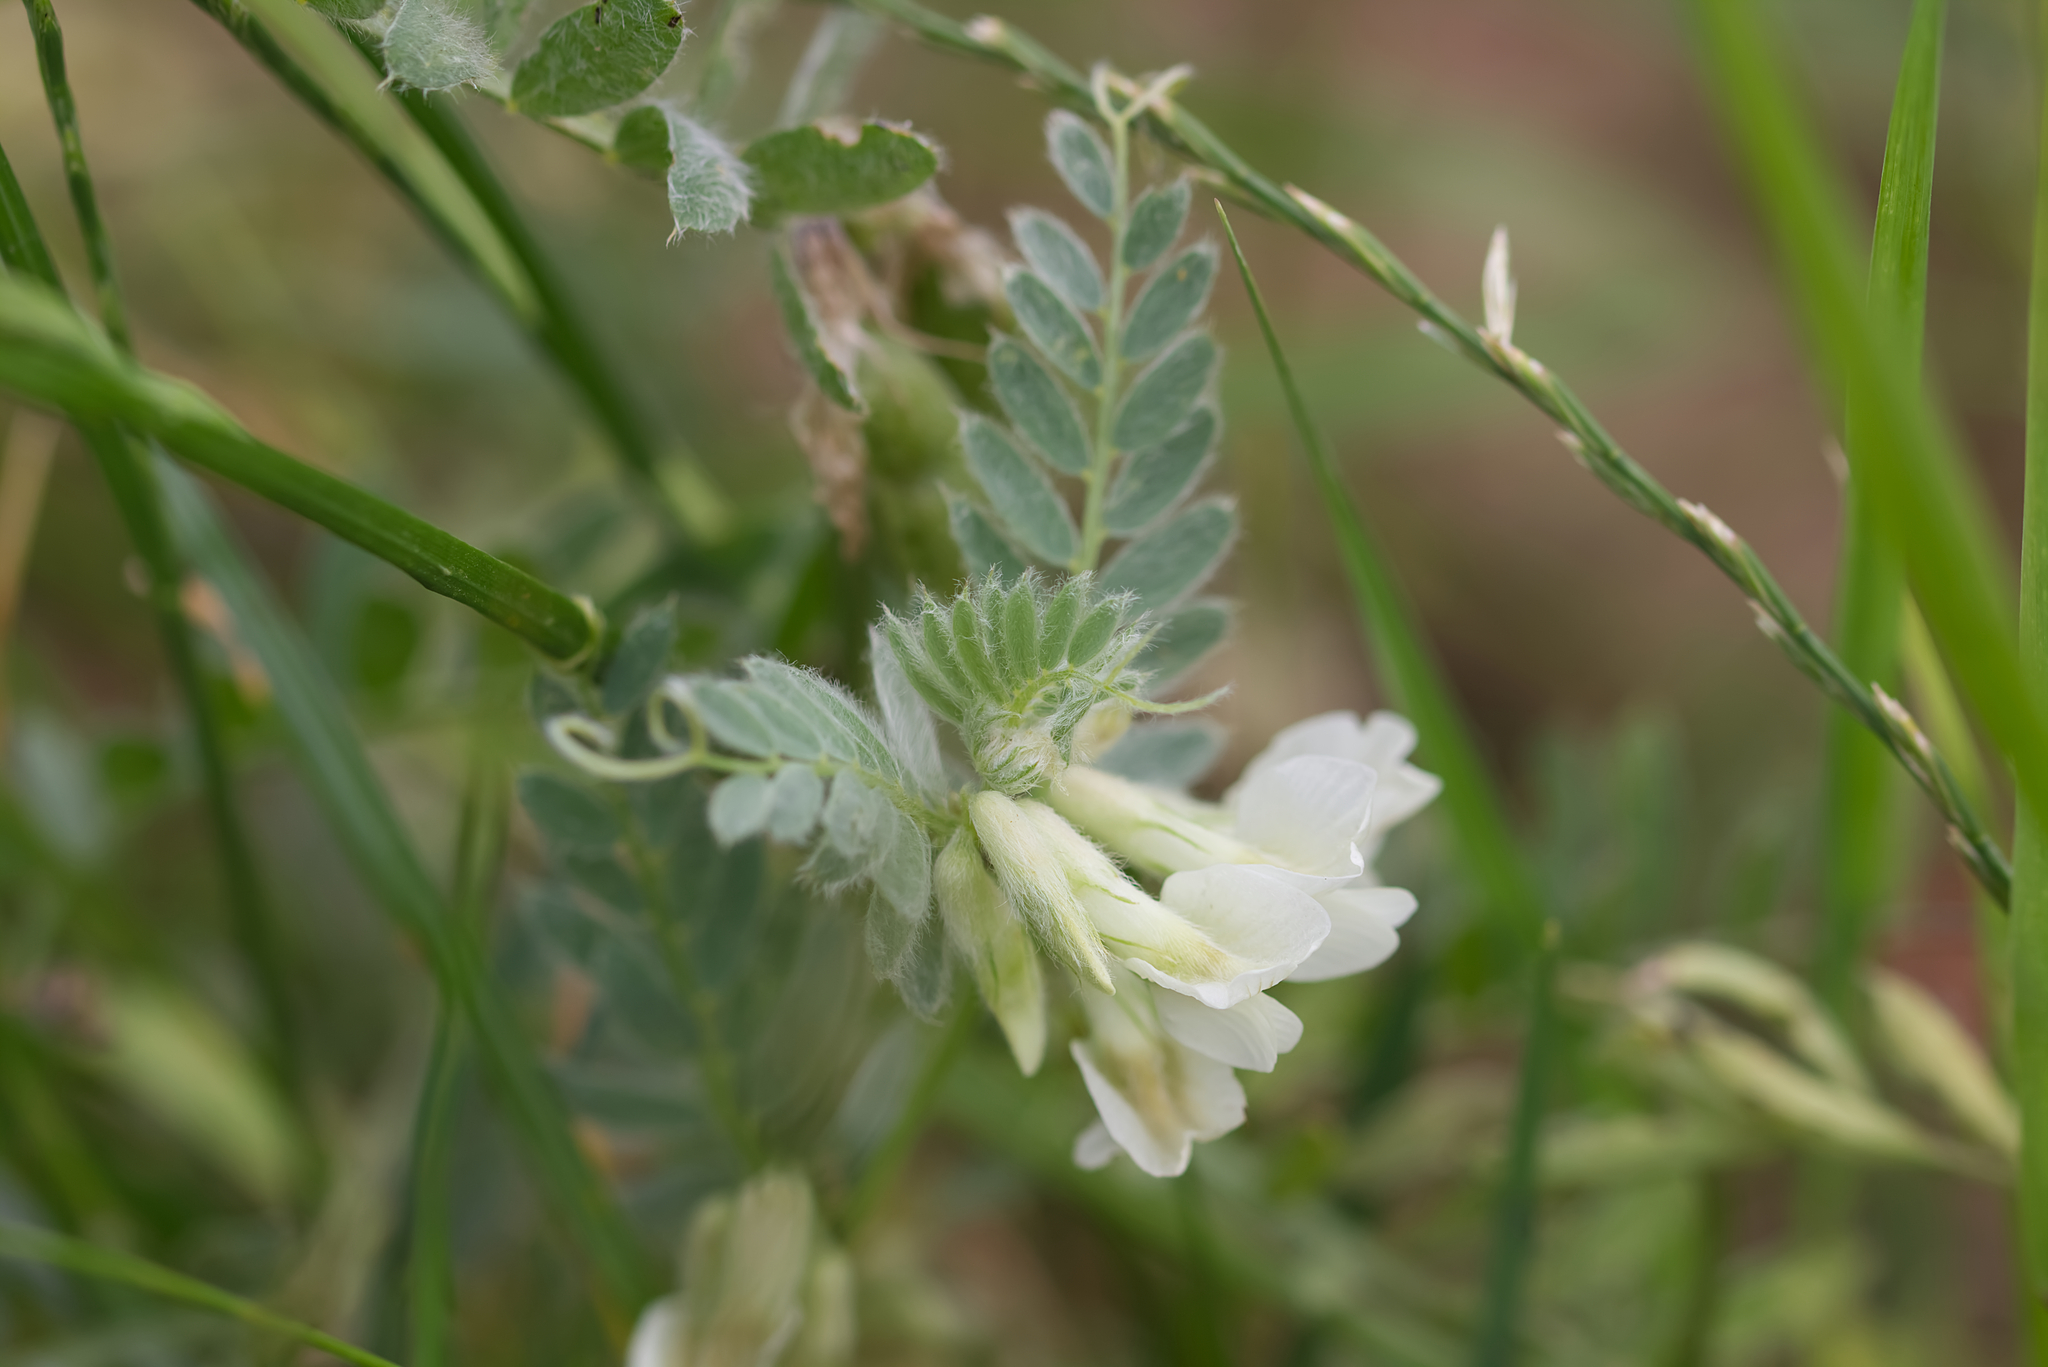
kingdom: Plantae
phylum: Tracheophyta
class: Magnoliopsida
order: Fabales
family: Fabaceae
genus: Vicia
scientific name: Vicia pannonica
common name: Hungarian vetch
